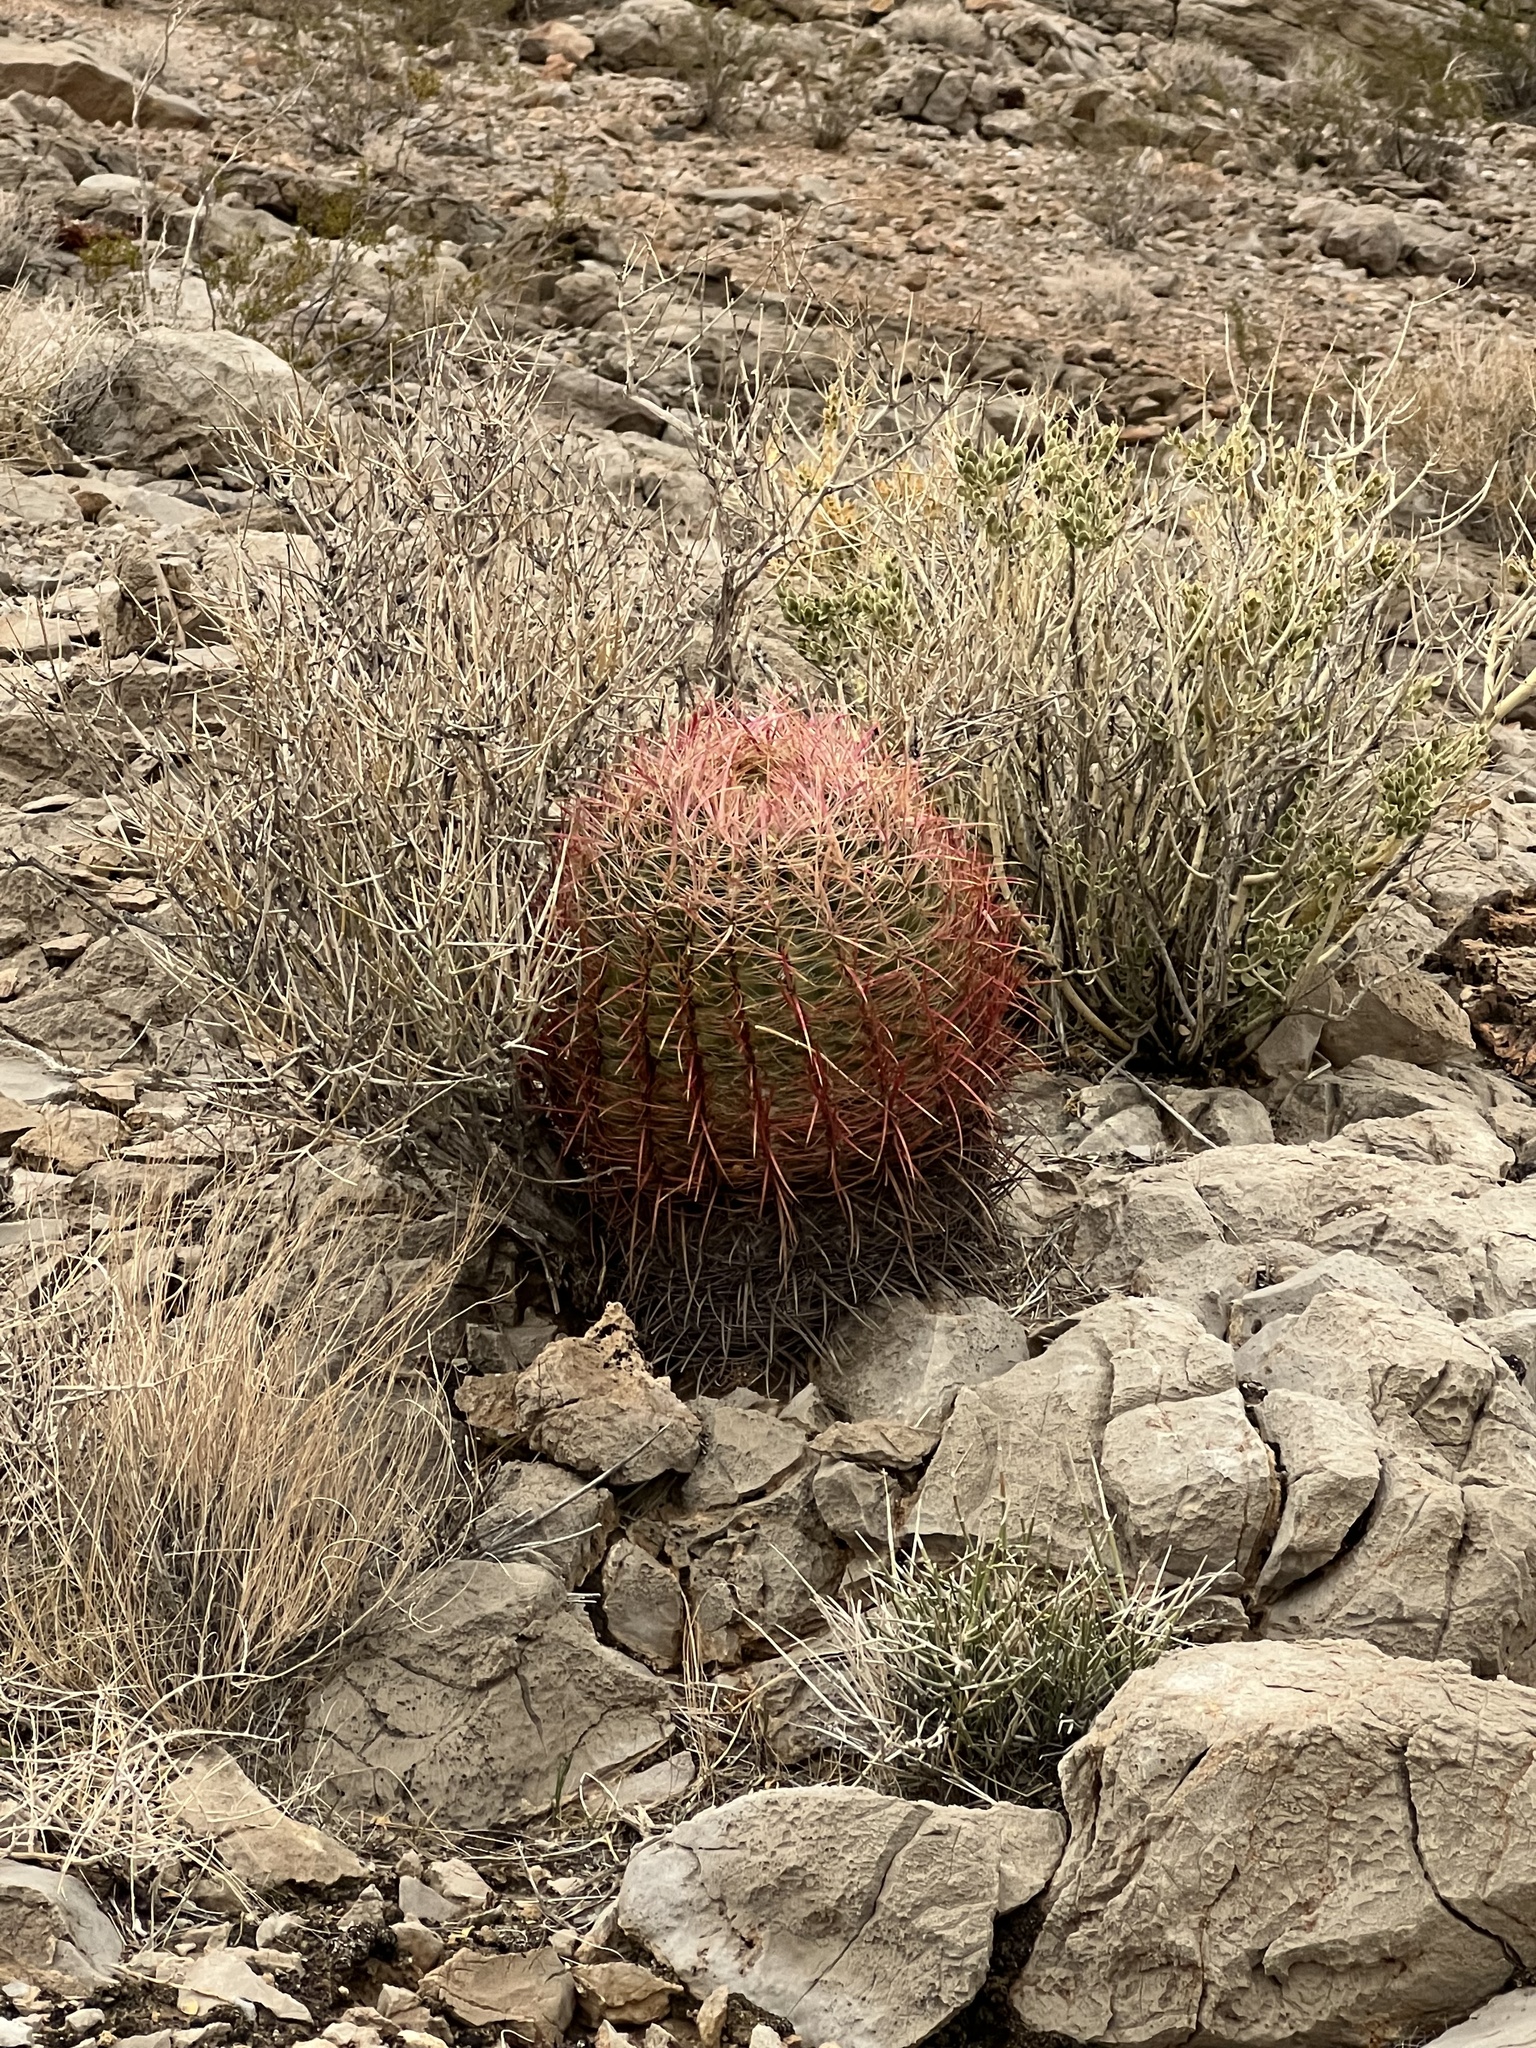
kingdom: Plantae
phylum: Tracheophyta
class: Magnoliopsida
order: Caryophyllales
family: Cactaceae
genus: Ferocactus
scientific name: Ferocactus cylindraceus
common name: California barrel cactus
